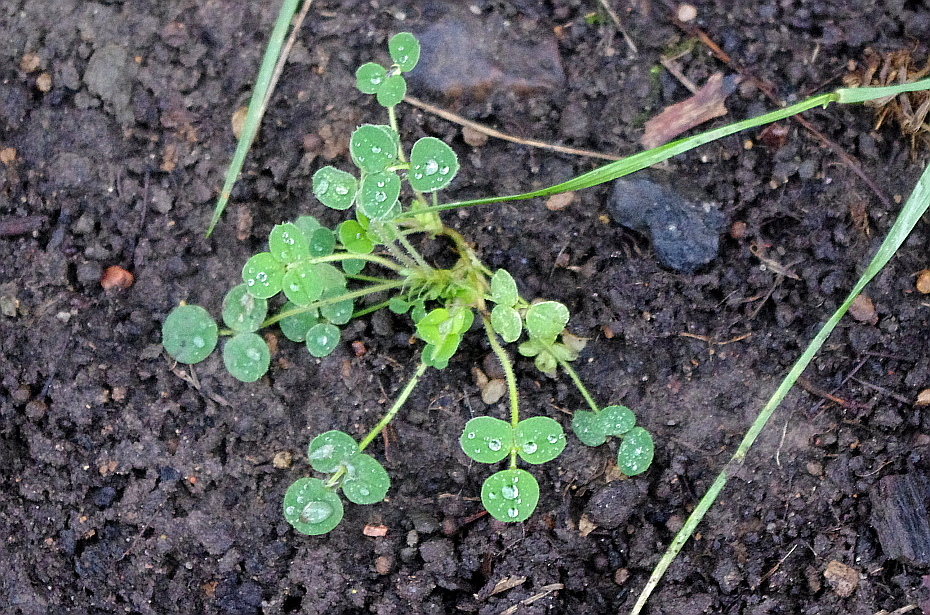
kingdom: Plantae
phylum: Tracheophyta
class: Magnoliopsida
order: Fabales
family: Fabaceae
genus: Medicago
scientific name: Medicago lupulina
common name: Black medick
